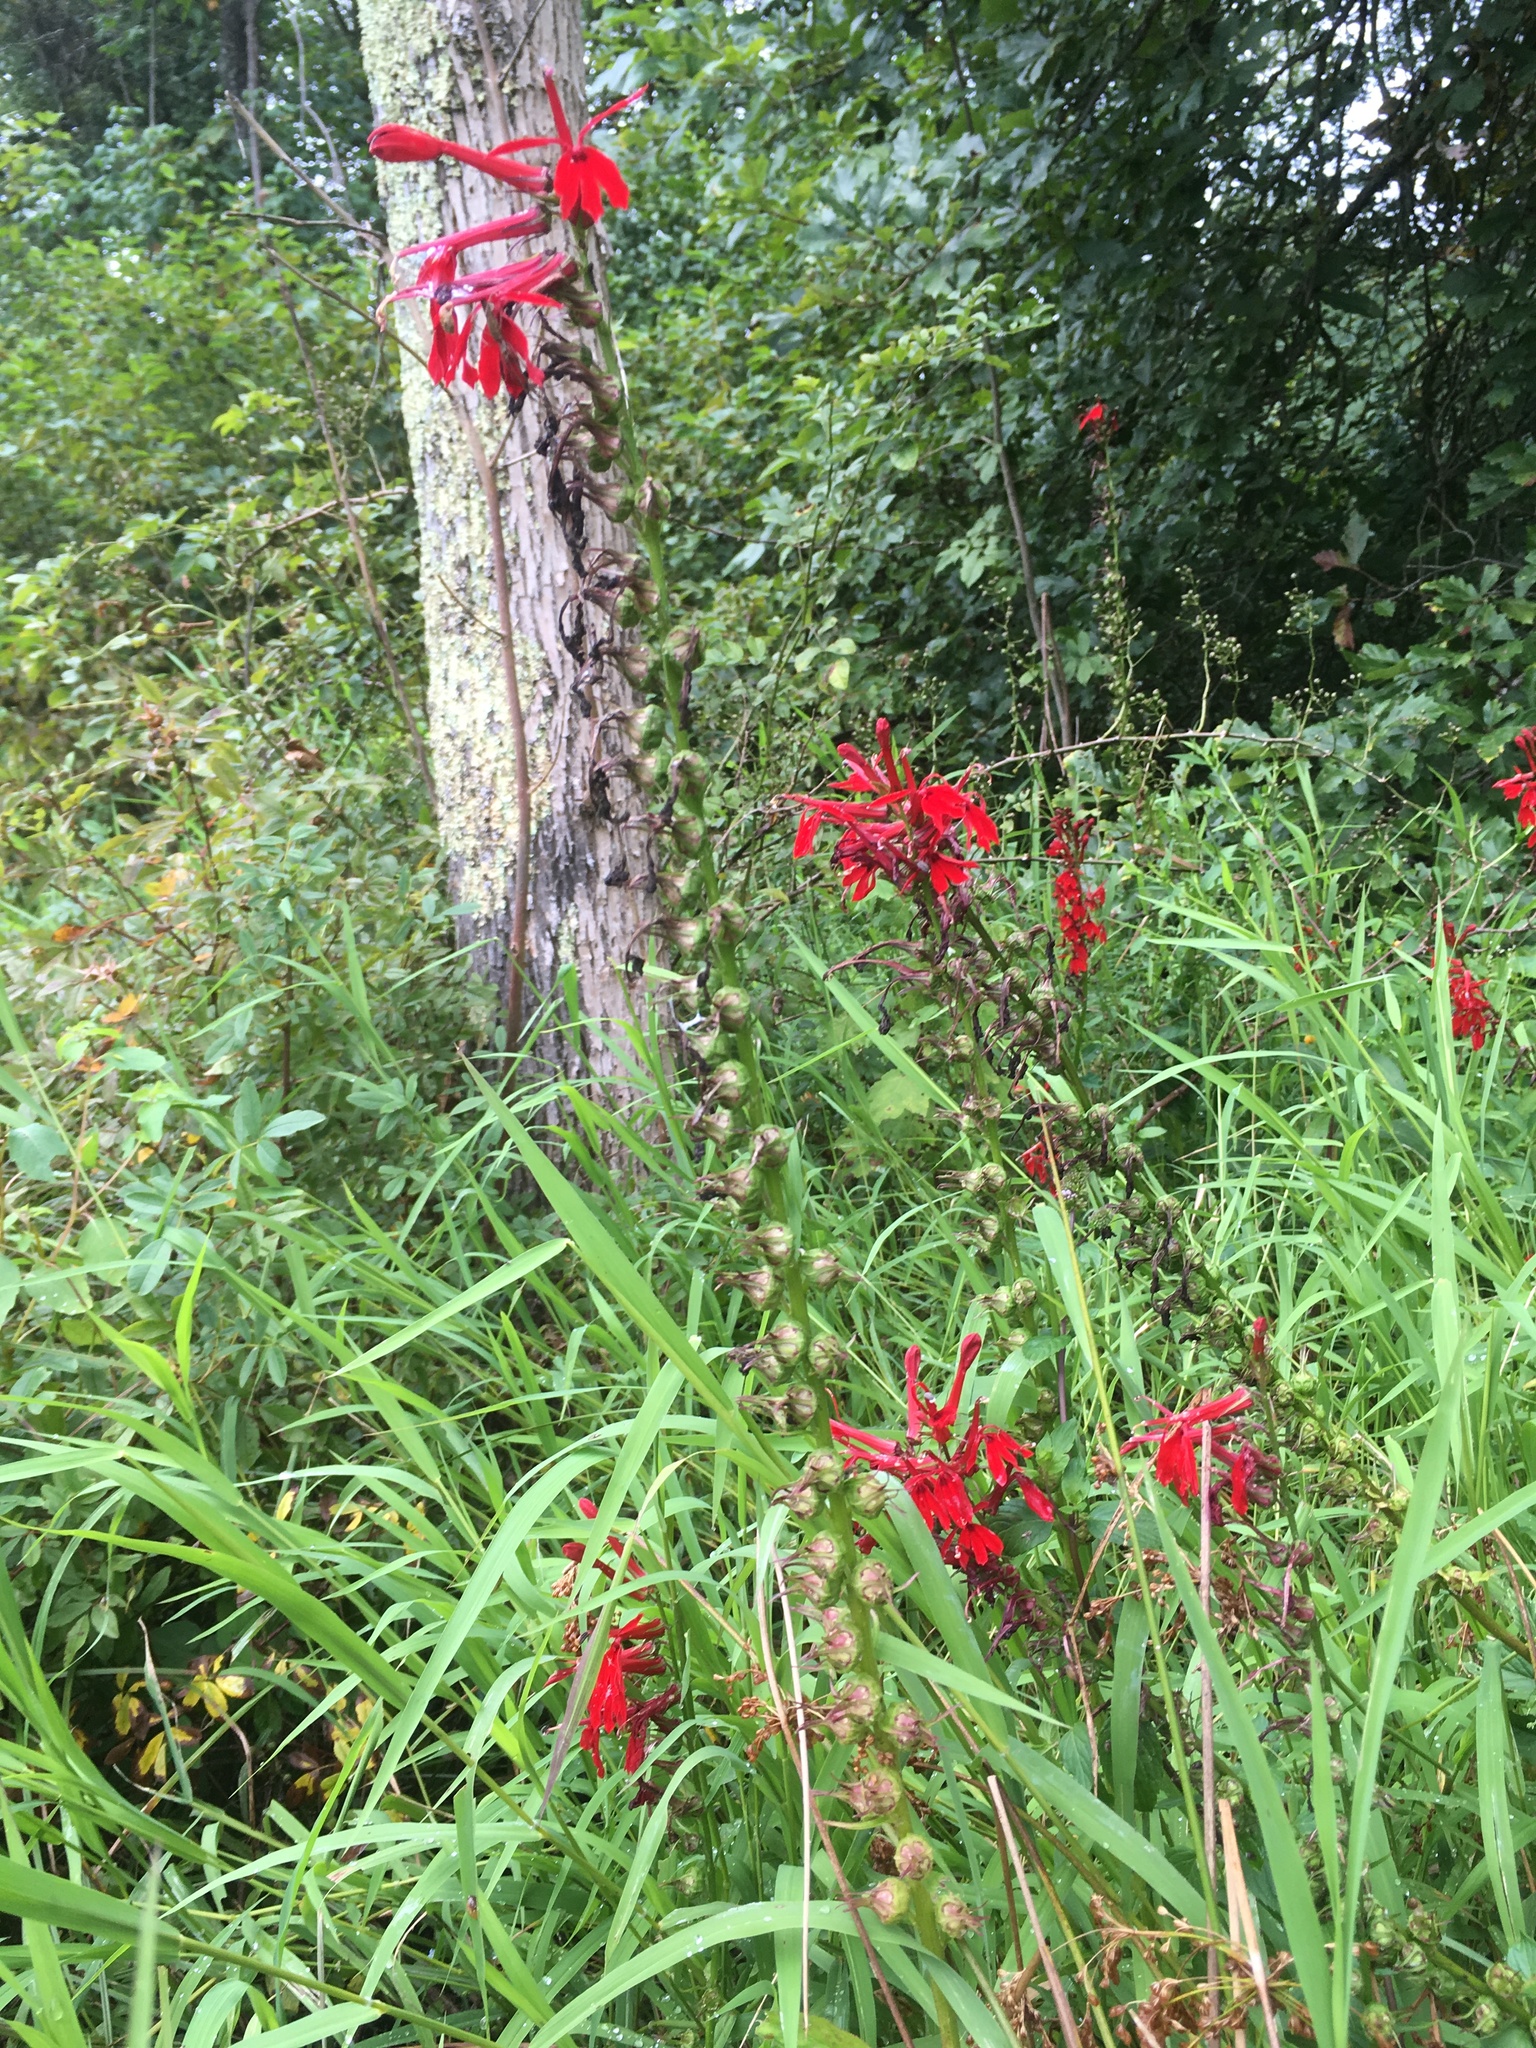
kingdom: Plantae
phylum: Tracheophyta
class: Magnoliopsida
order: Asterales
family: Campanulaceae
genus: Lobelia
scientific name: Lobelia cardinalis
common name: Cardinal flower
